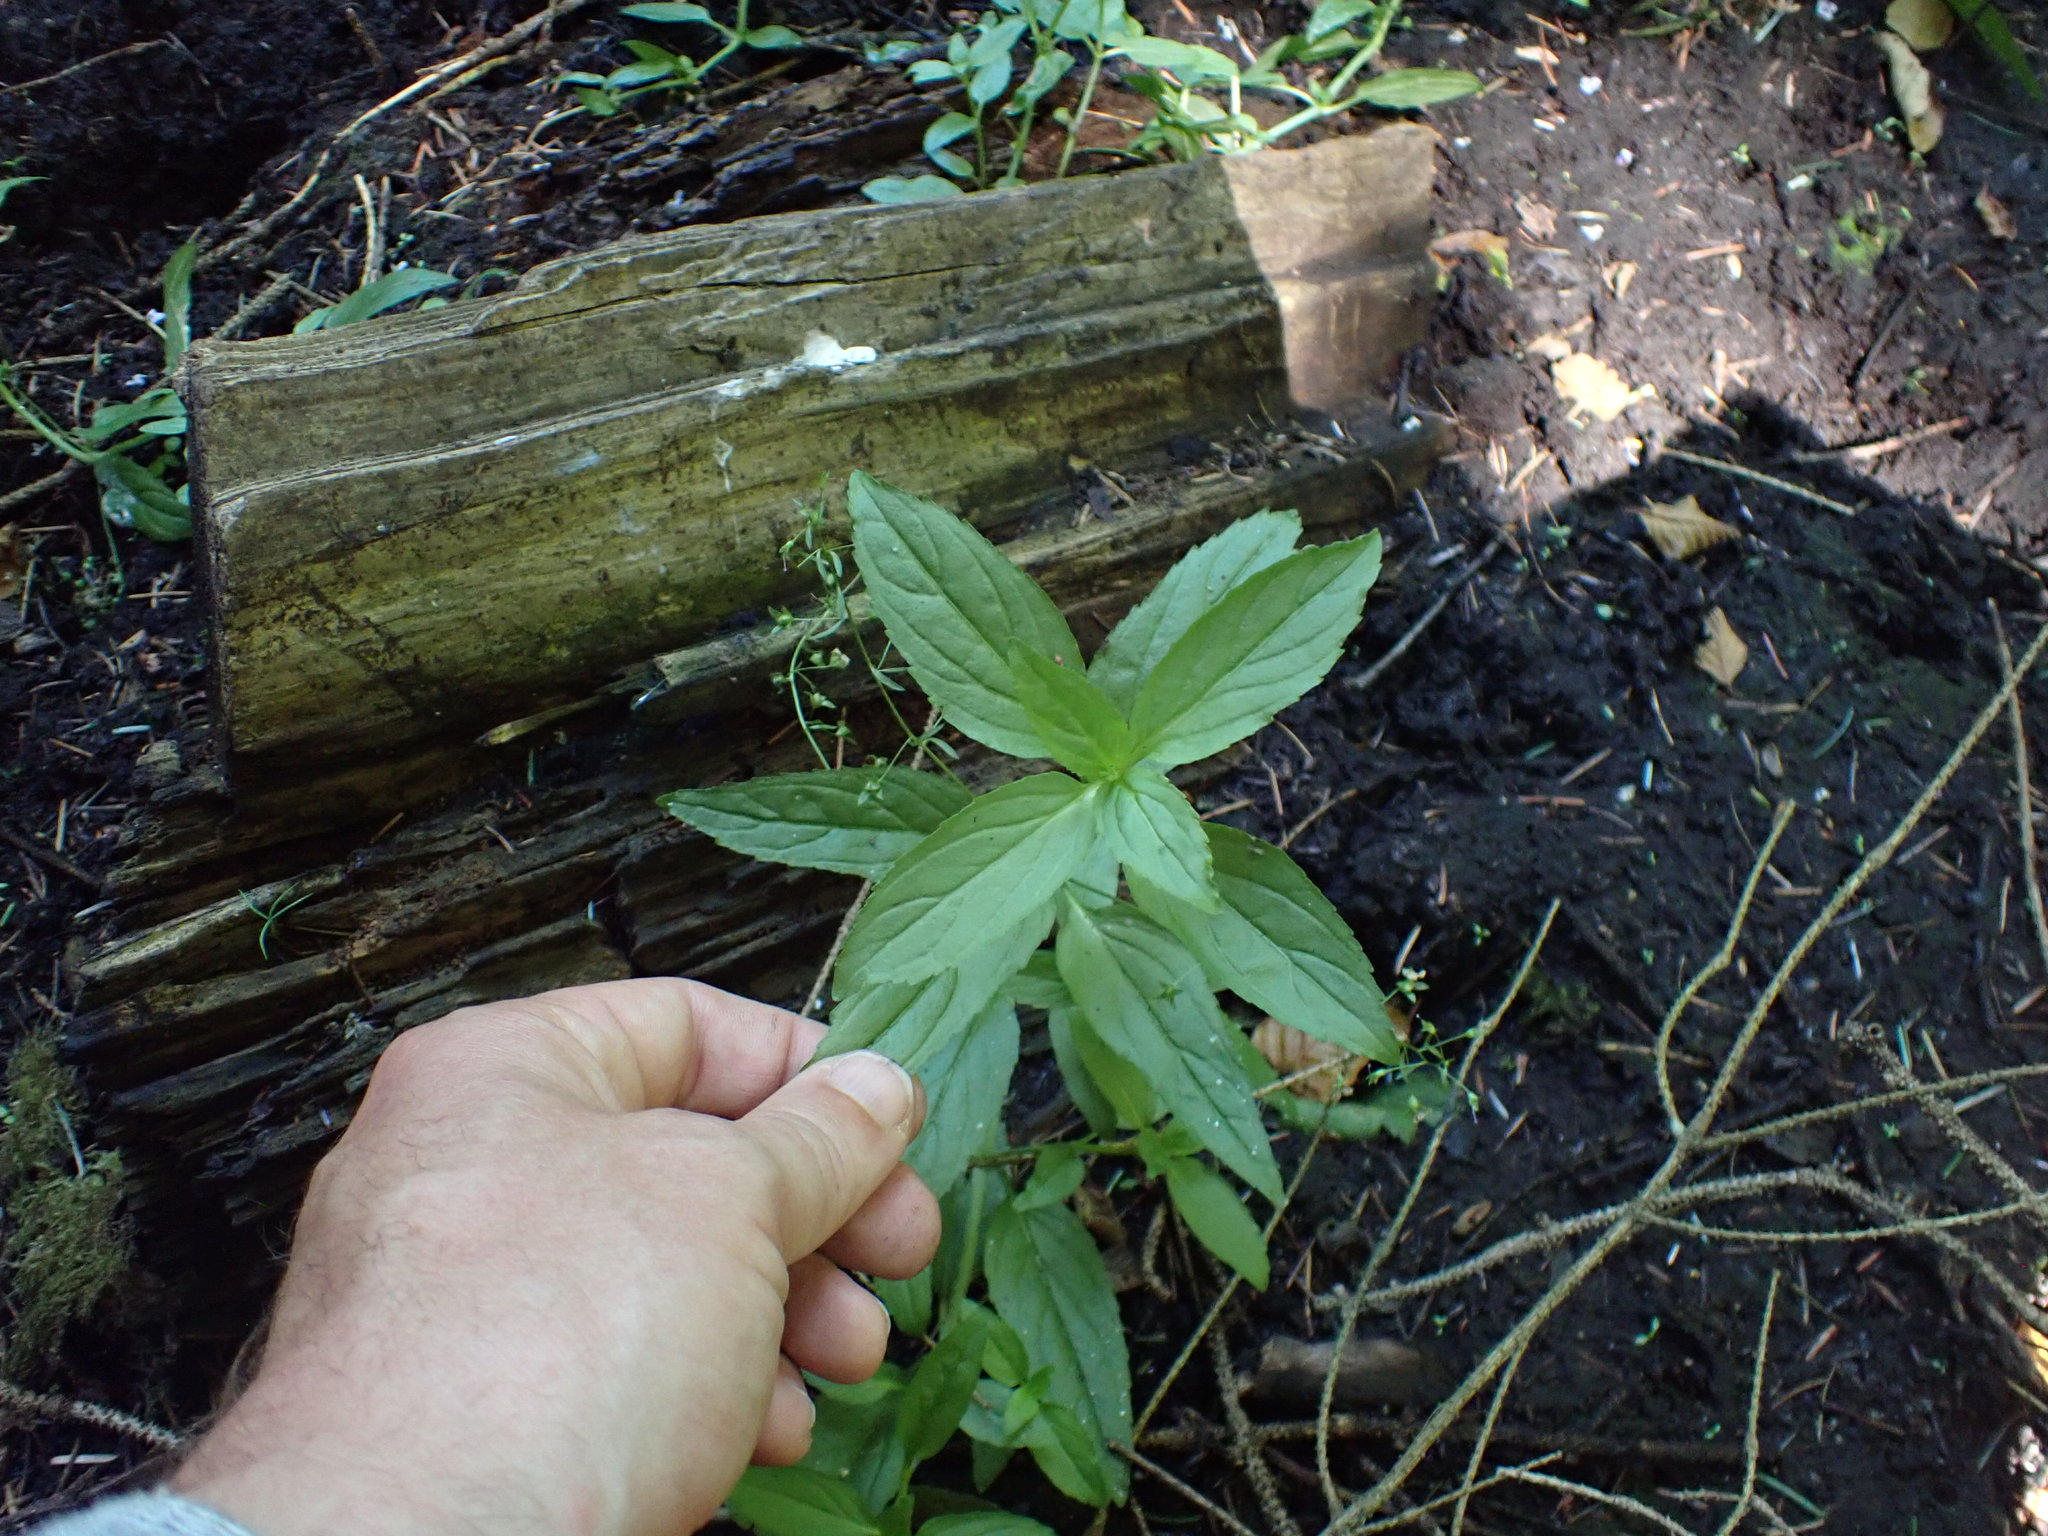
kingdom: Plantae
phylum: Tracheophyta
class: Magnoliopsida
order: Lamiales
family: Plantaginaceae
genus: Veronica
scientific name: Veronica americana
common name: American brooklime
